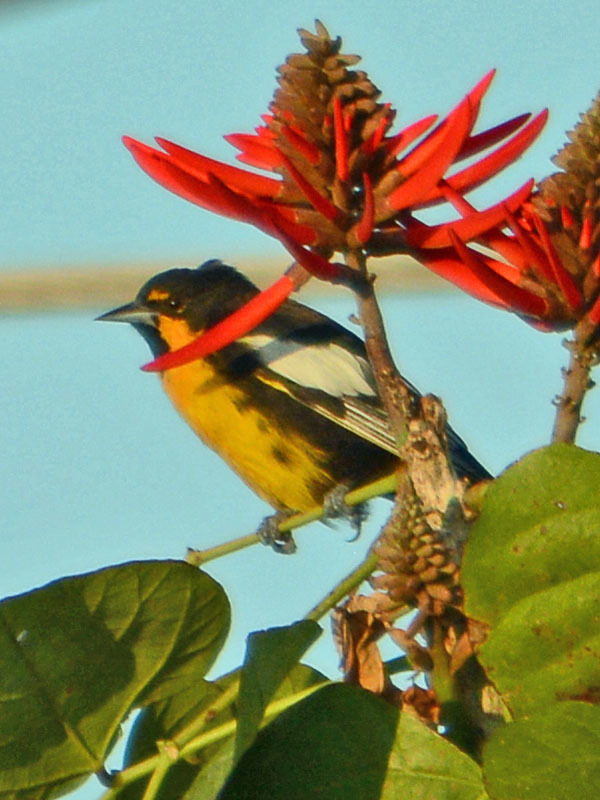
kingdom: Animalia
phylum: Chordata
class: Aves
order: Passeriformes
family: Icteridae
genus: Icterus
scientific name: Icterus abeillei
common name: Black-backed oriole
